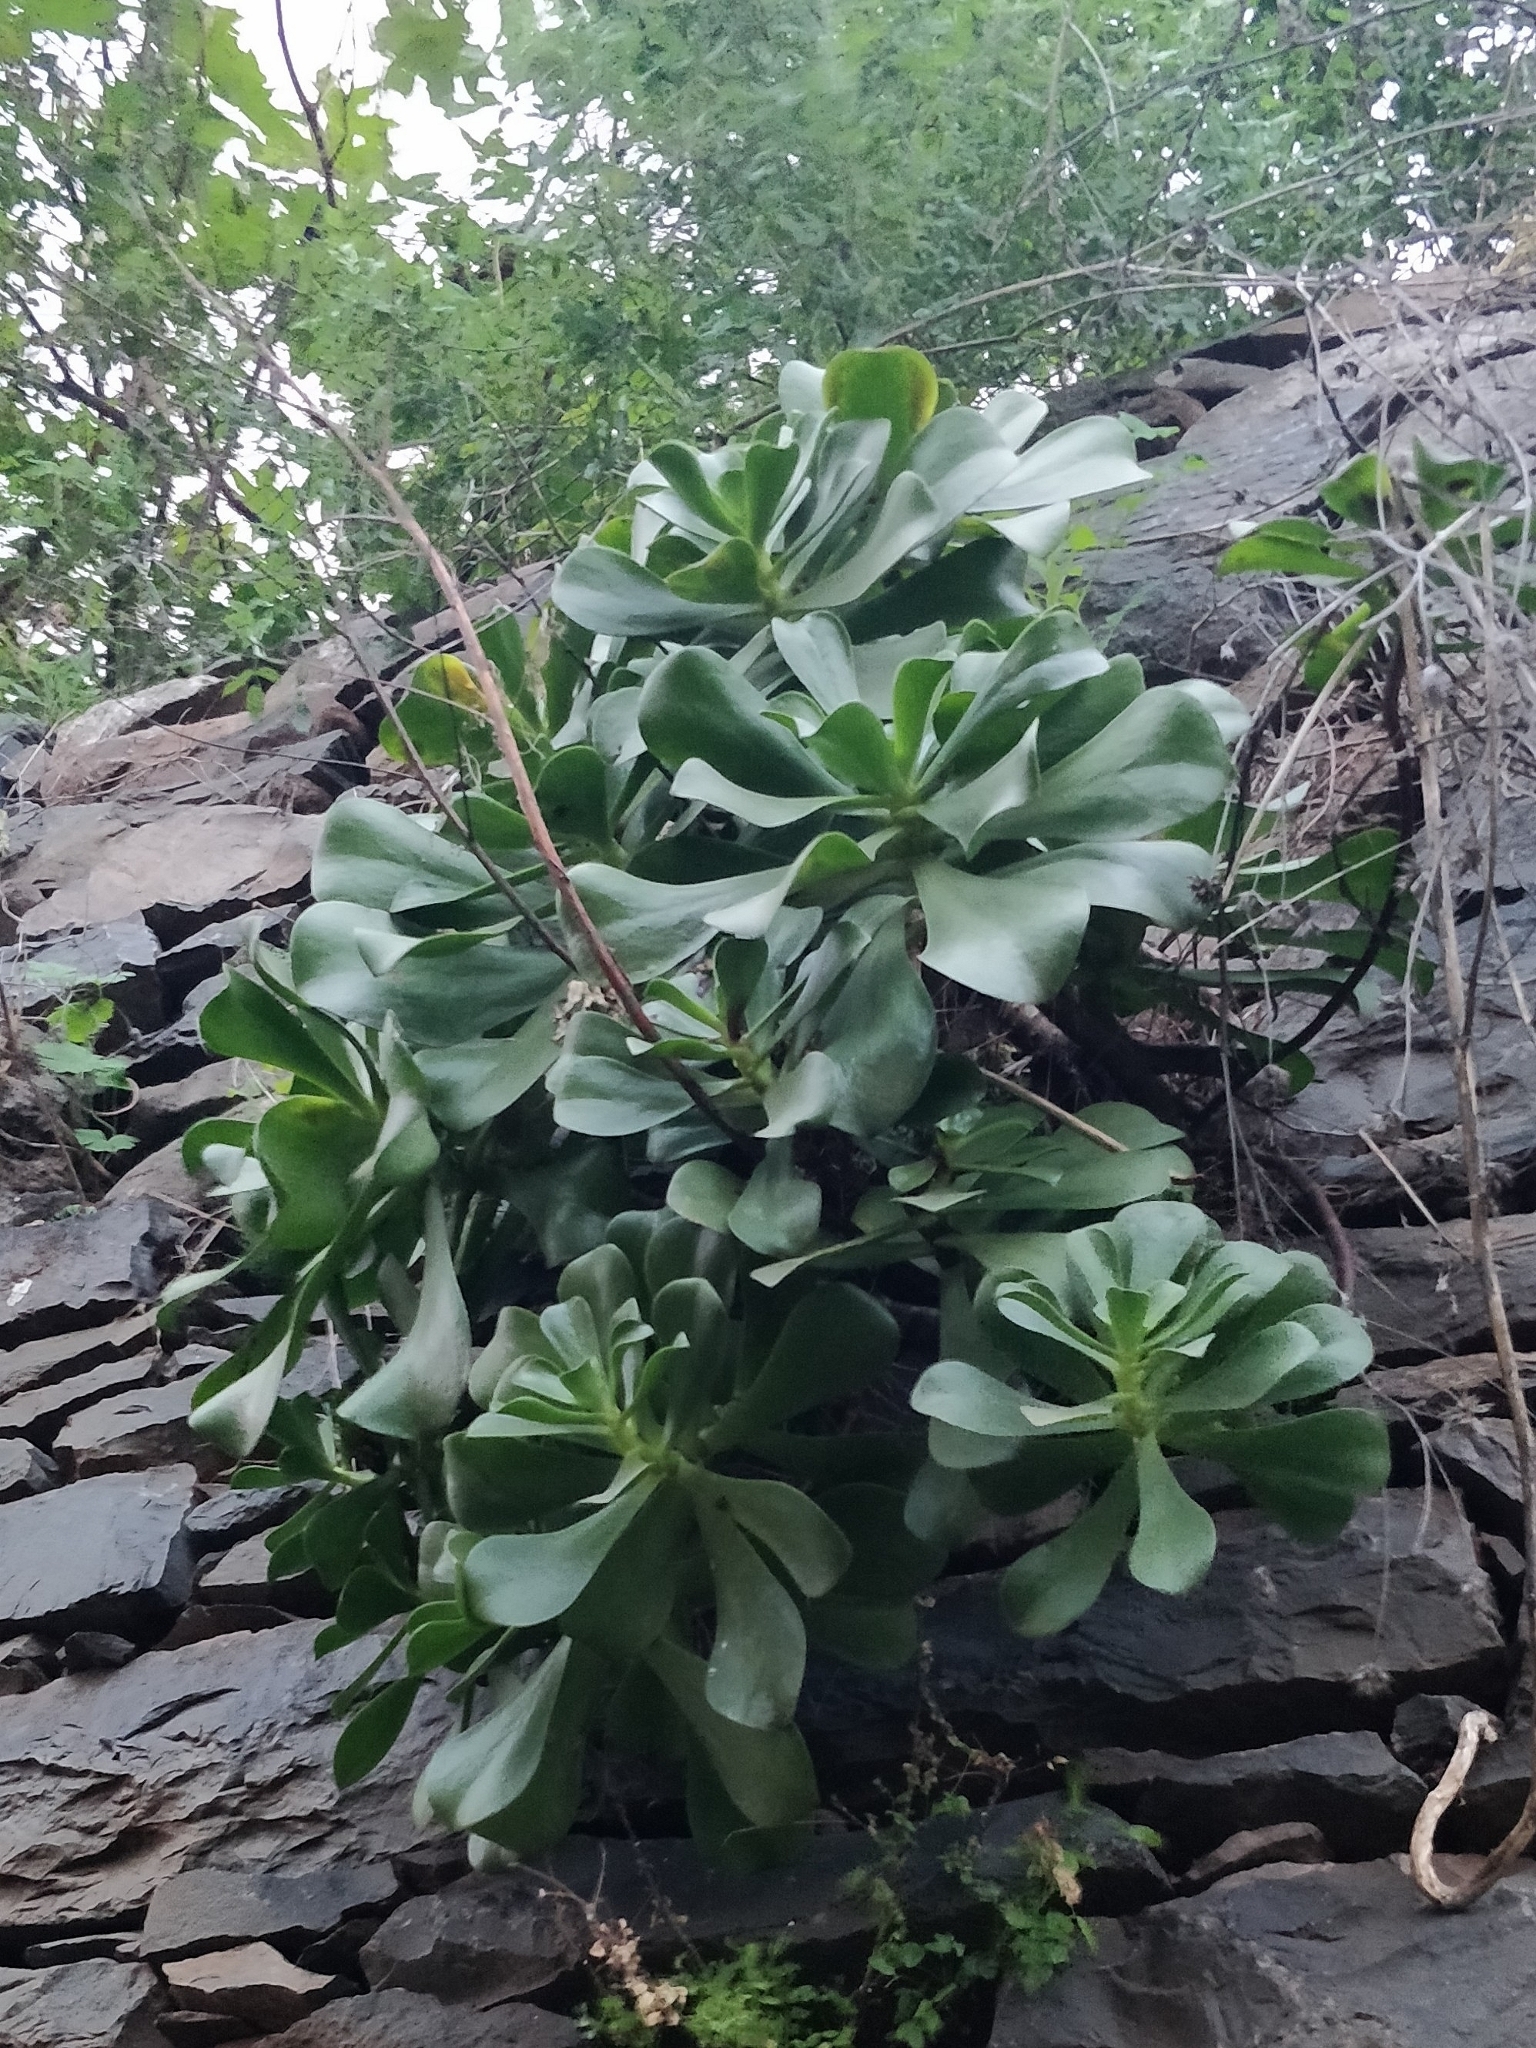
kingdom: Plantae
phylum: Tracheophyta
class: Magnoliopsida
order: Saxifragales
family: Crassulaceae
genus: Aeonium
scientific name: Aeonium glutinosum
